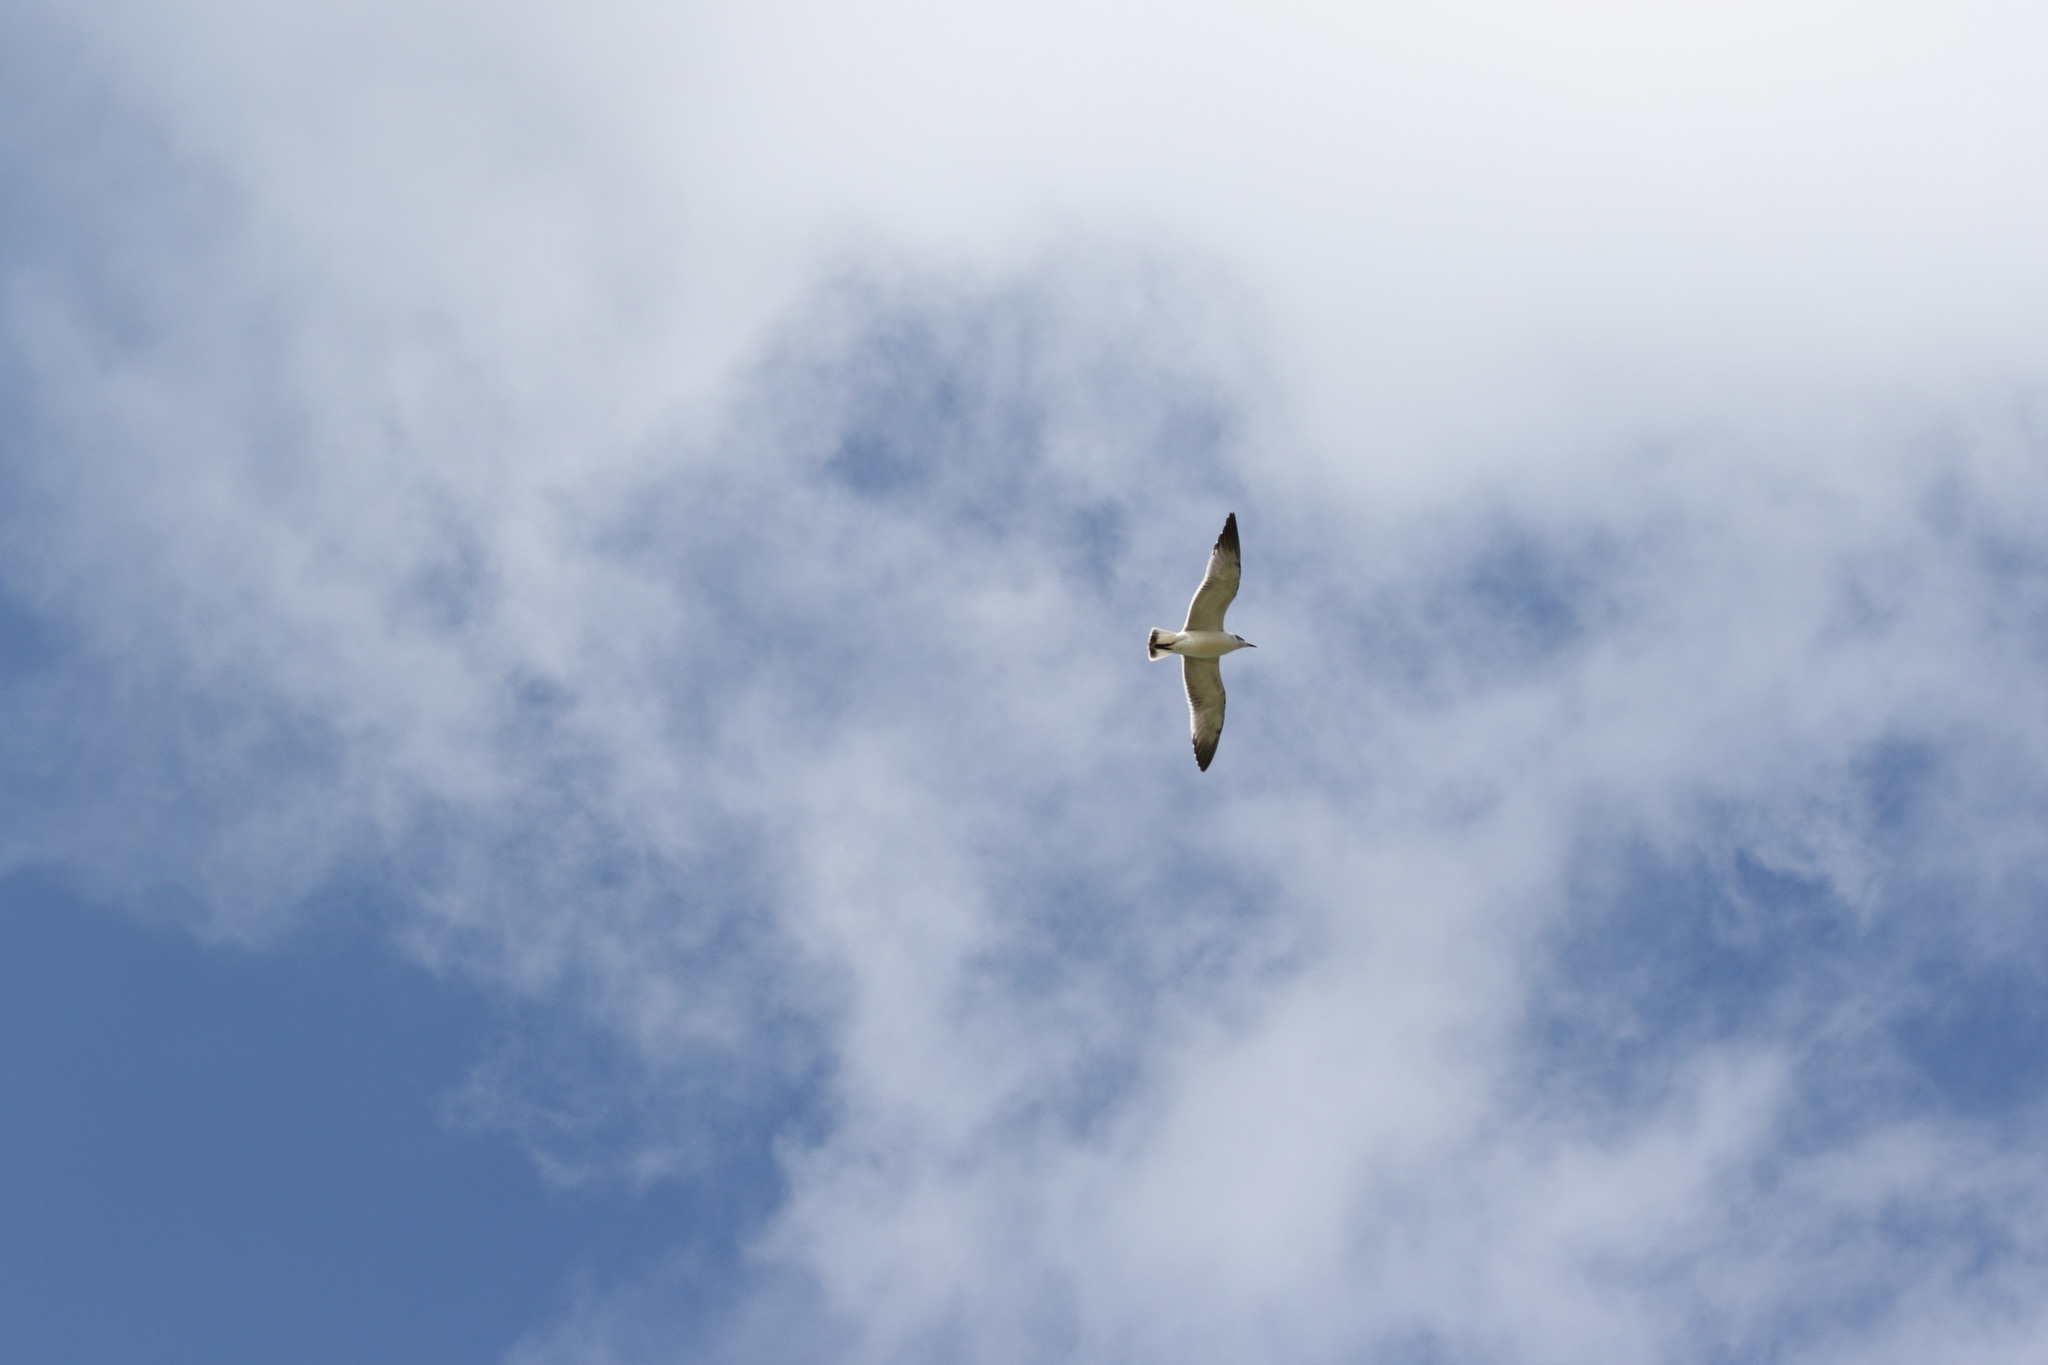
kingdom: Animalia
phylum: Chordata
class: Aves
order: Charadriiformes
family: Laridae
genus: Leucophaeus
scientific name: Leucophaeus pipixcan
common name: Franklin's gull
